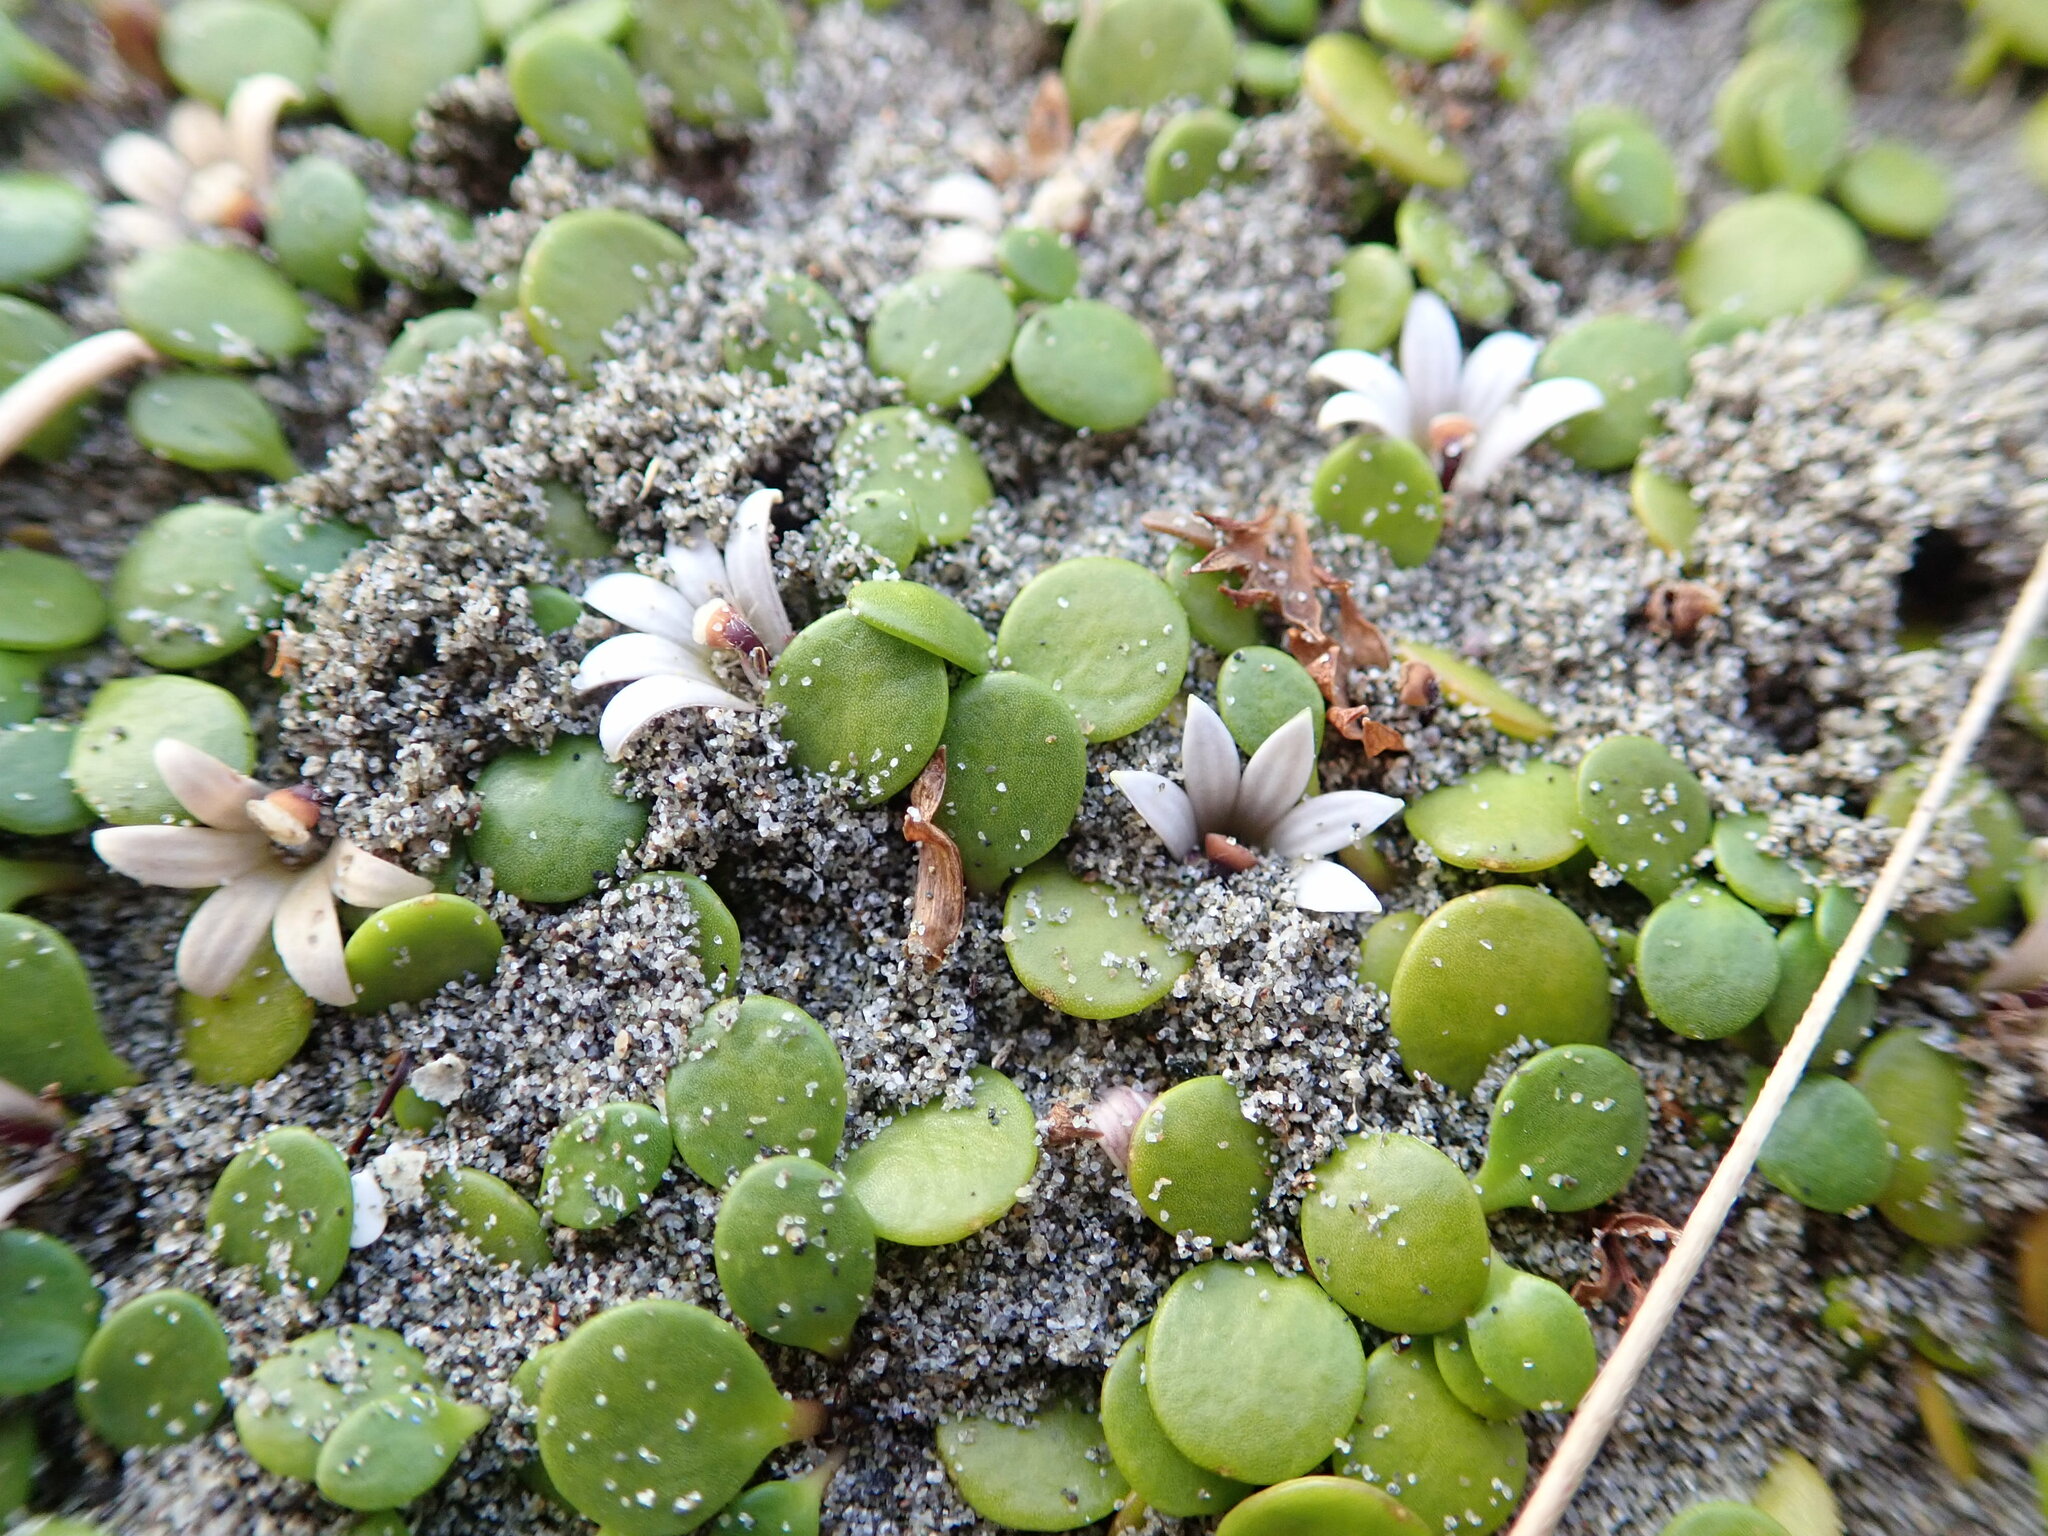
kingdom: Plantae
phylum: Tracheophyta
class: Magnoliopsida
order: Asterales
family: Goodeniaceae
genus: Goodenia
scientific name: Goodenia heenanii
